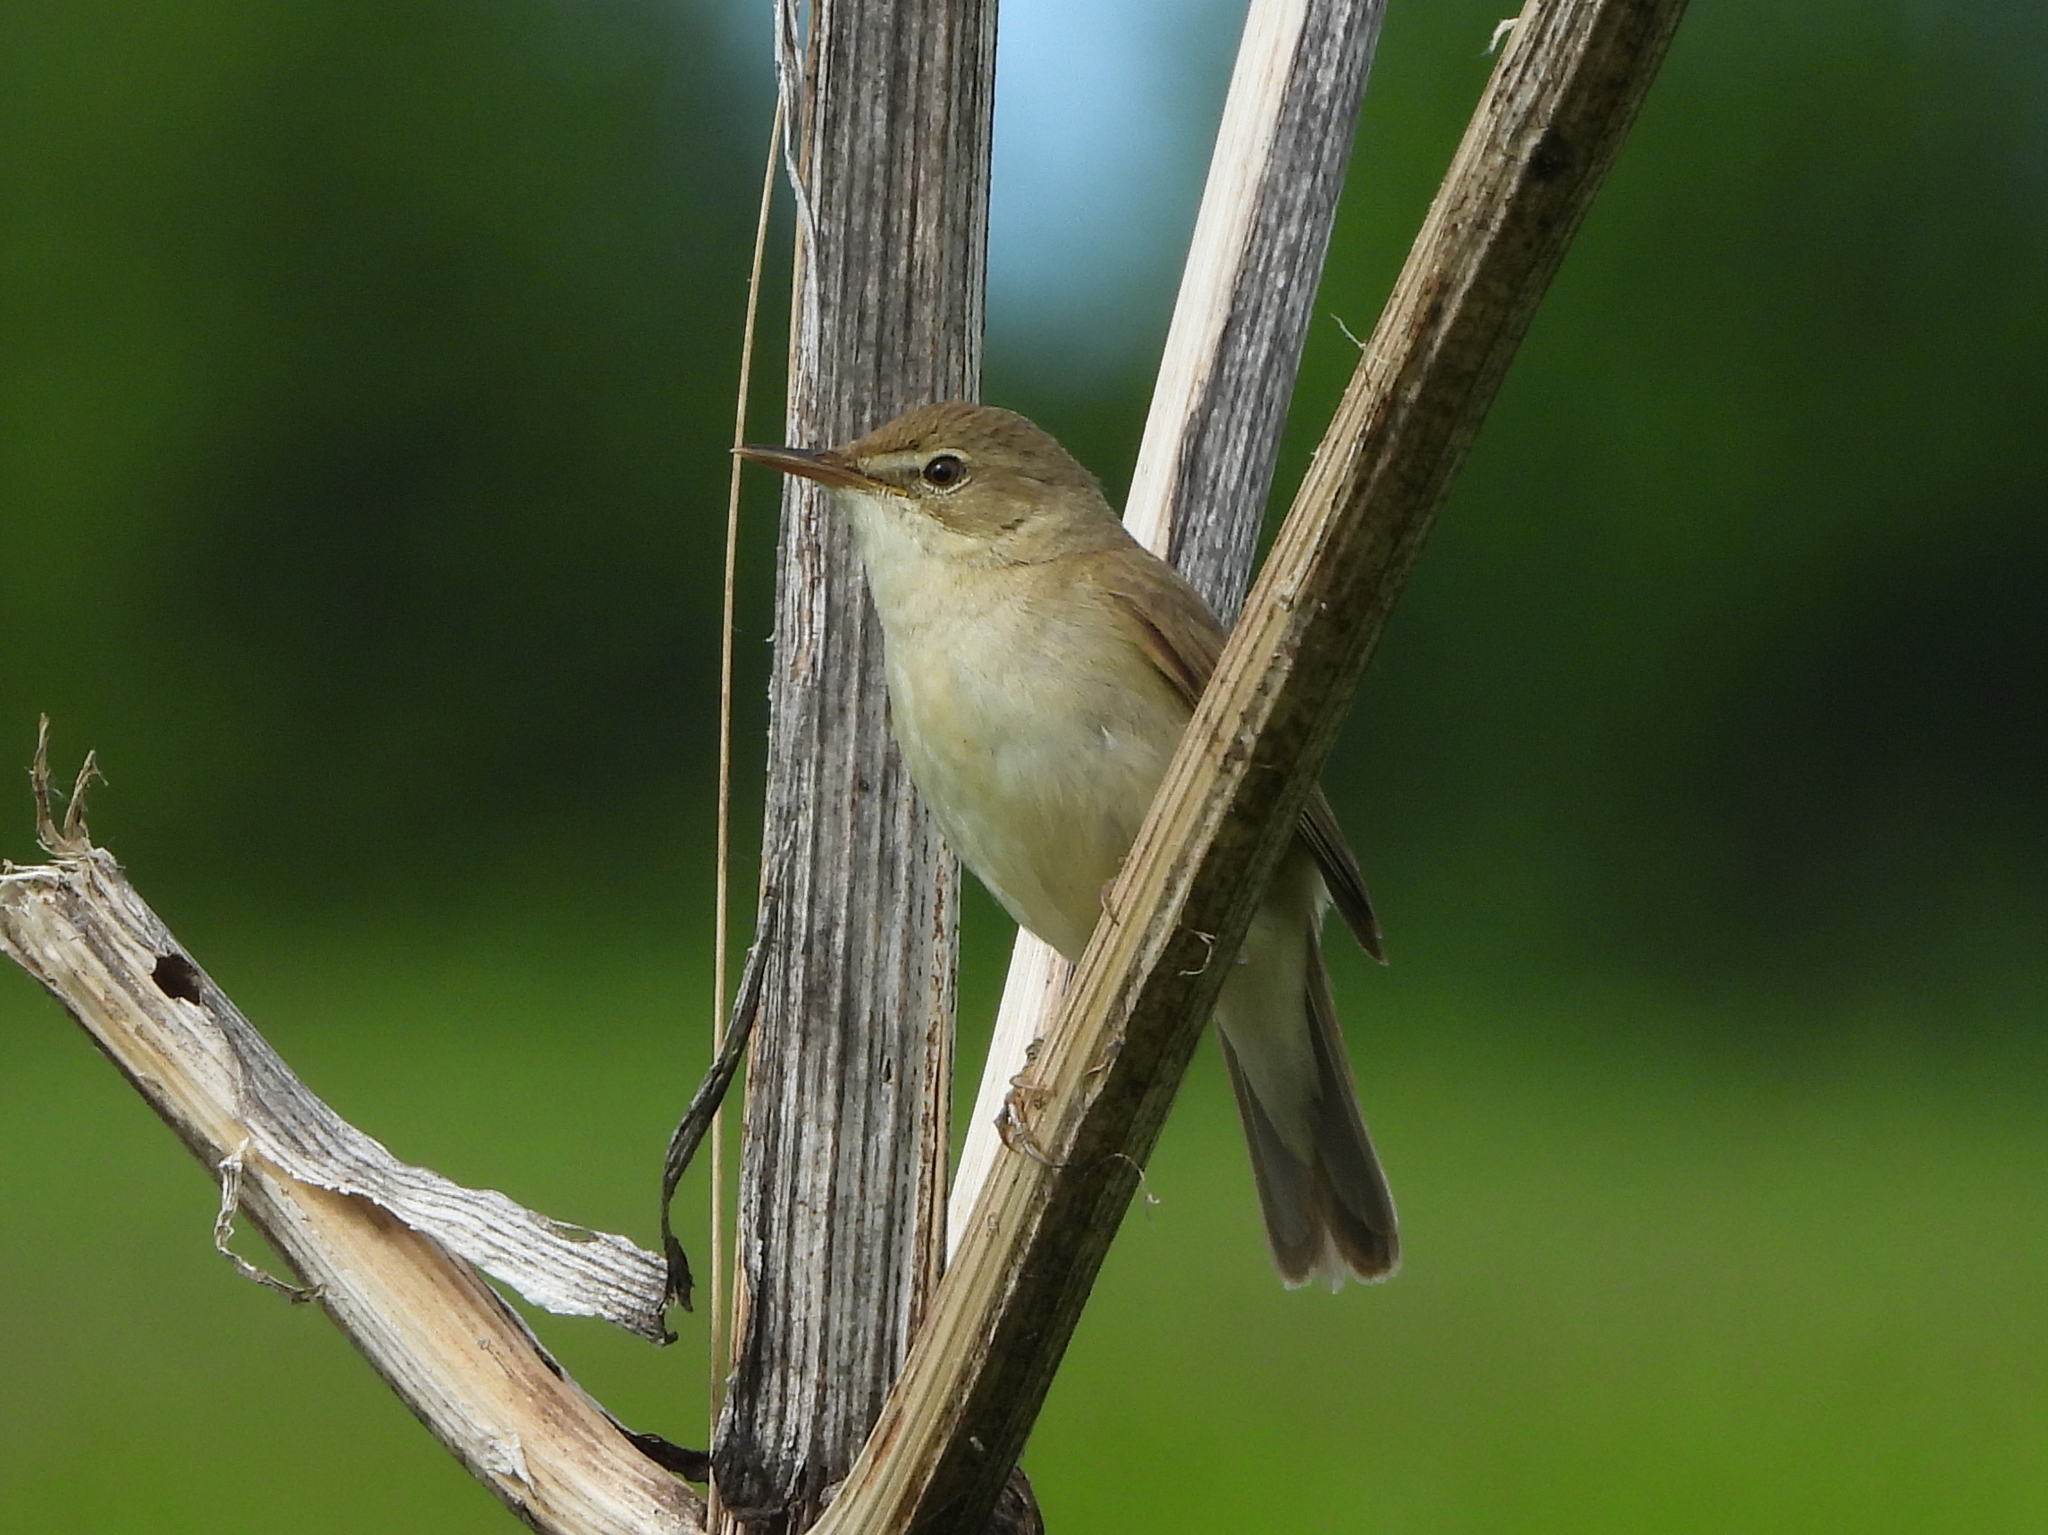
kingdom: Animalia
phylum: Chordata
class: Aves
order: Passeriformes
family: Acrocephalidae
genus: Acrocephalus
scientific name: Acrocephalus dumetorum
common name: Blyth's reed warbler
